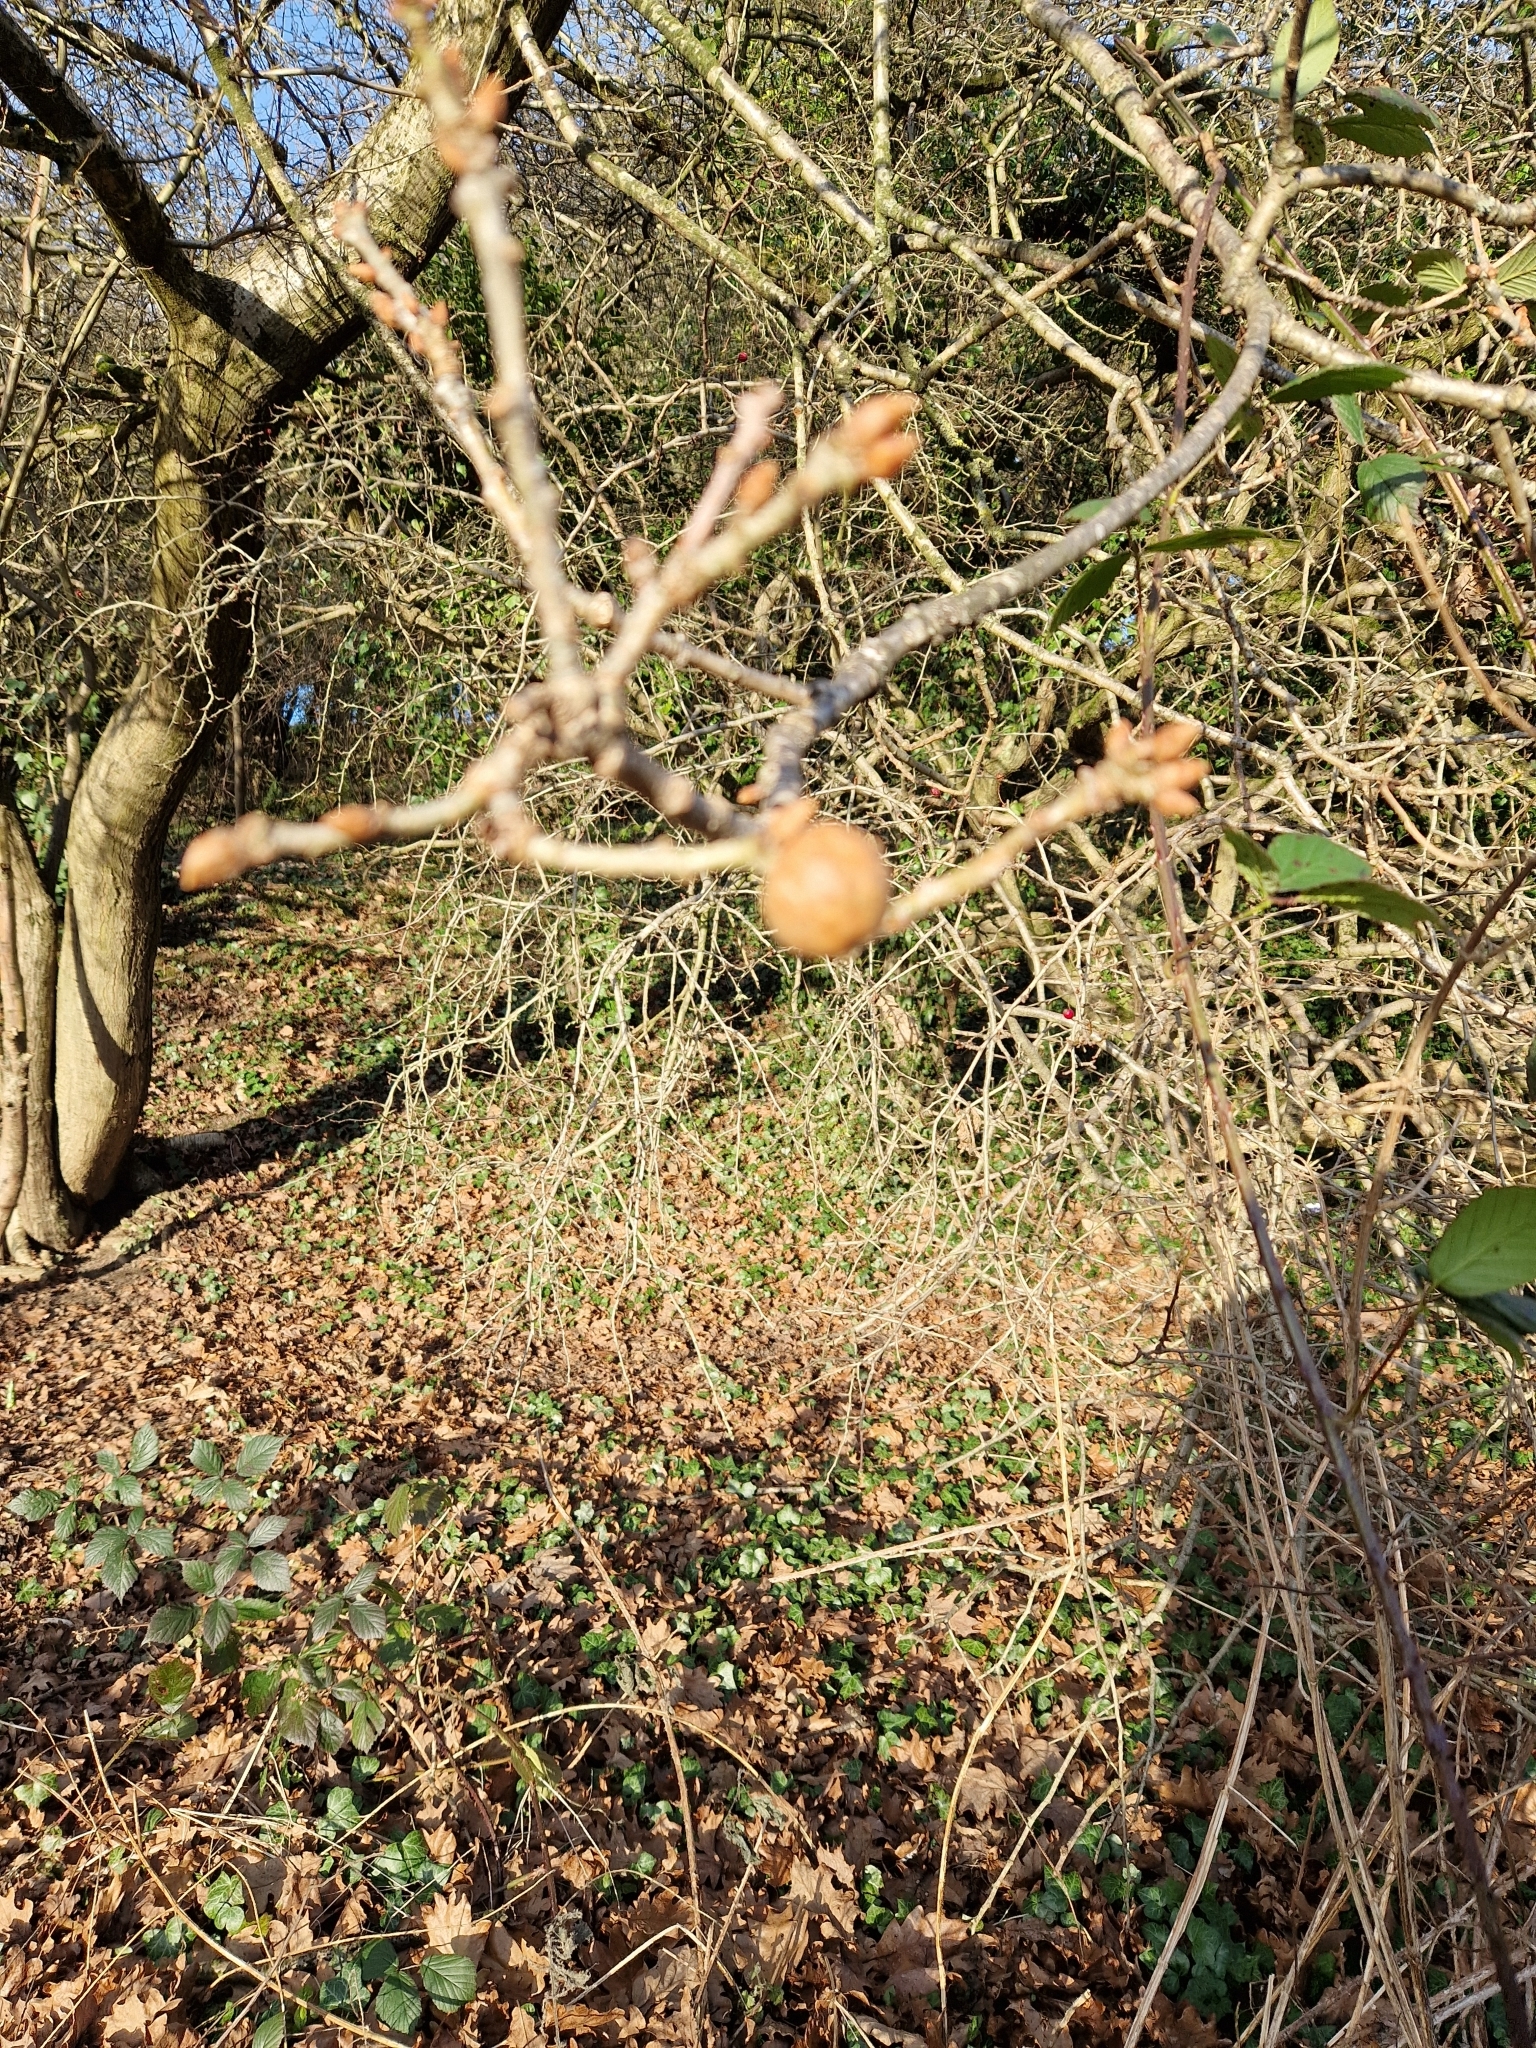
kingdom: Animalia
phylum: Arthropoda
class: Insecta
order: Hymenoptera
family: Cynipidae
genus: Andricus
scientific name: Andricus kollari
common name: Marble gall
